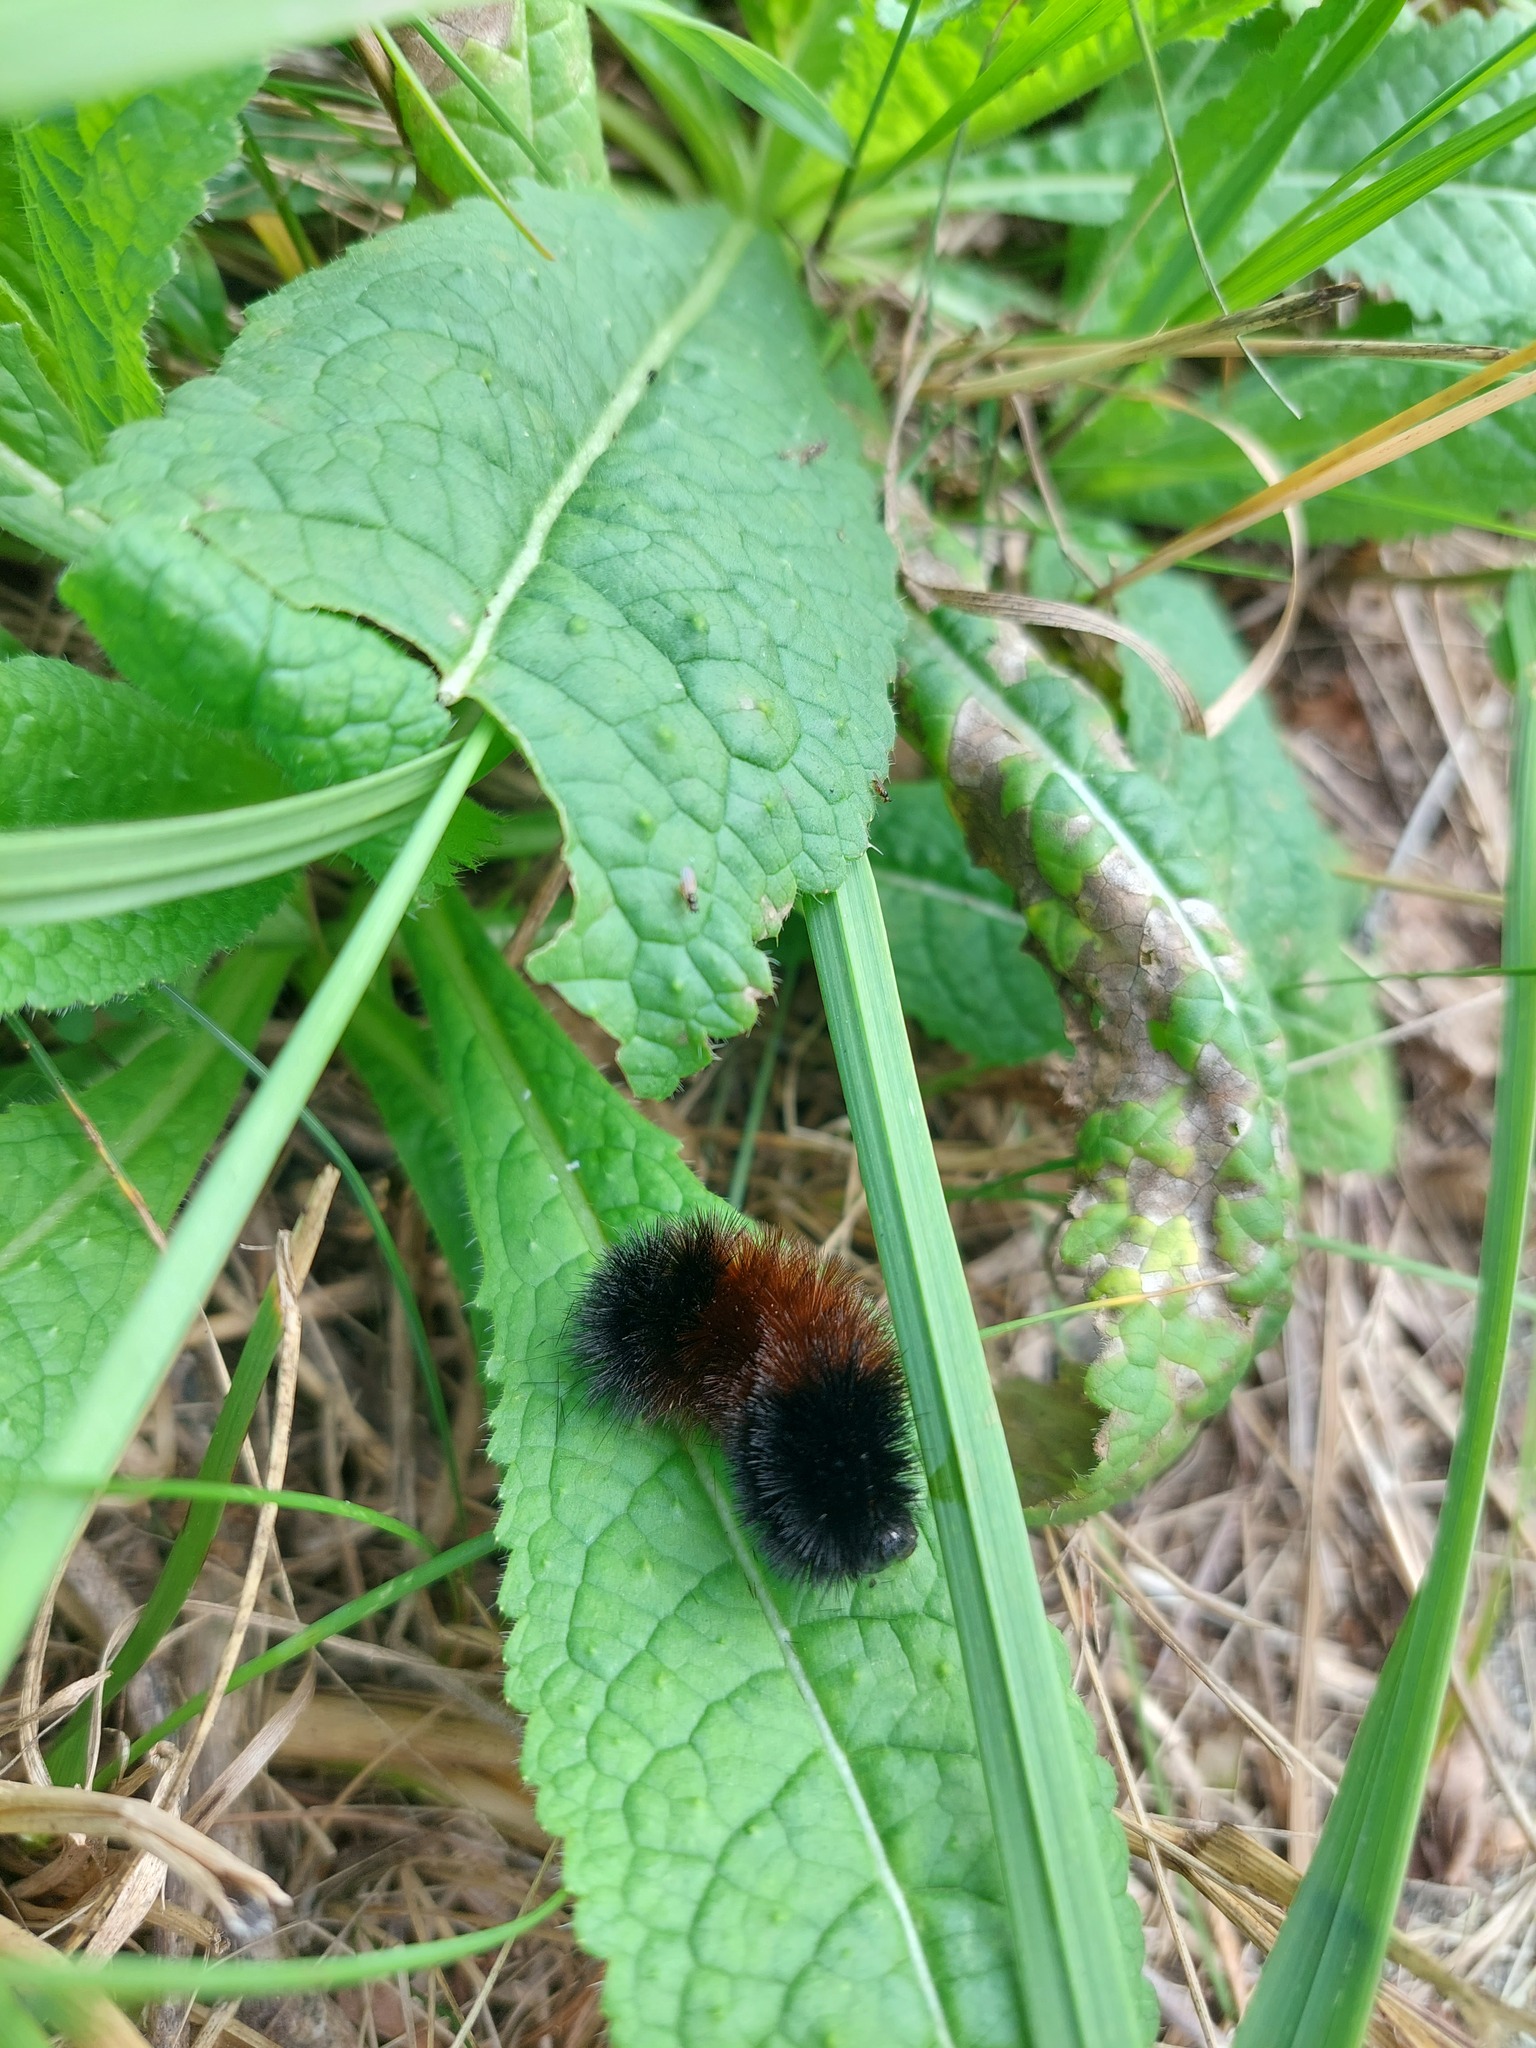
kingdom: Animalia
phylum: Arthropoda
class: Insecta
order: Lepidoptera
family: Erebidae
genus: Pyrrharctia
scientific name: Pyrrharctia isabella
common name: Isabella tiger moth
